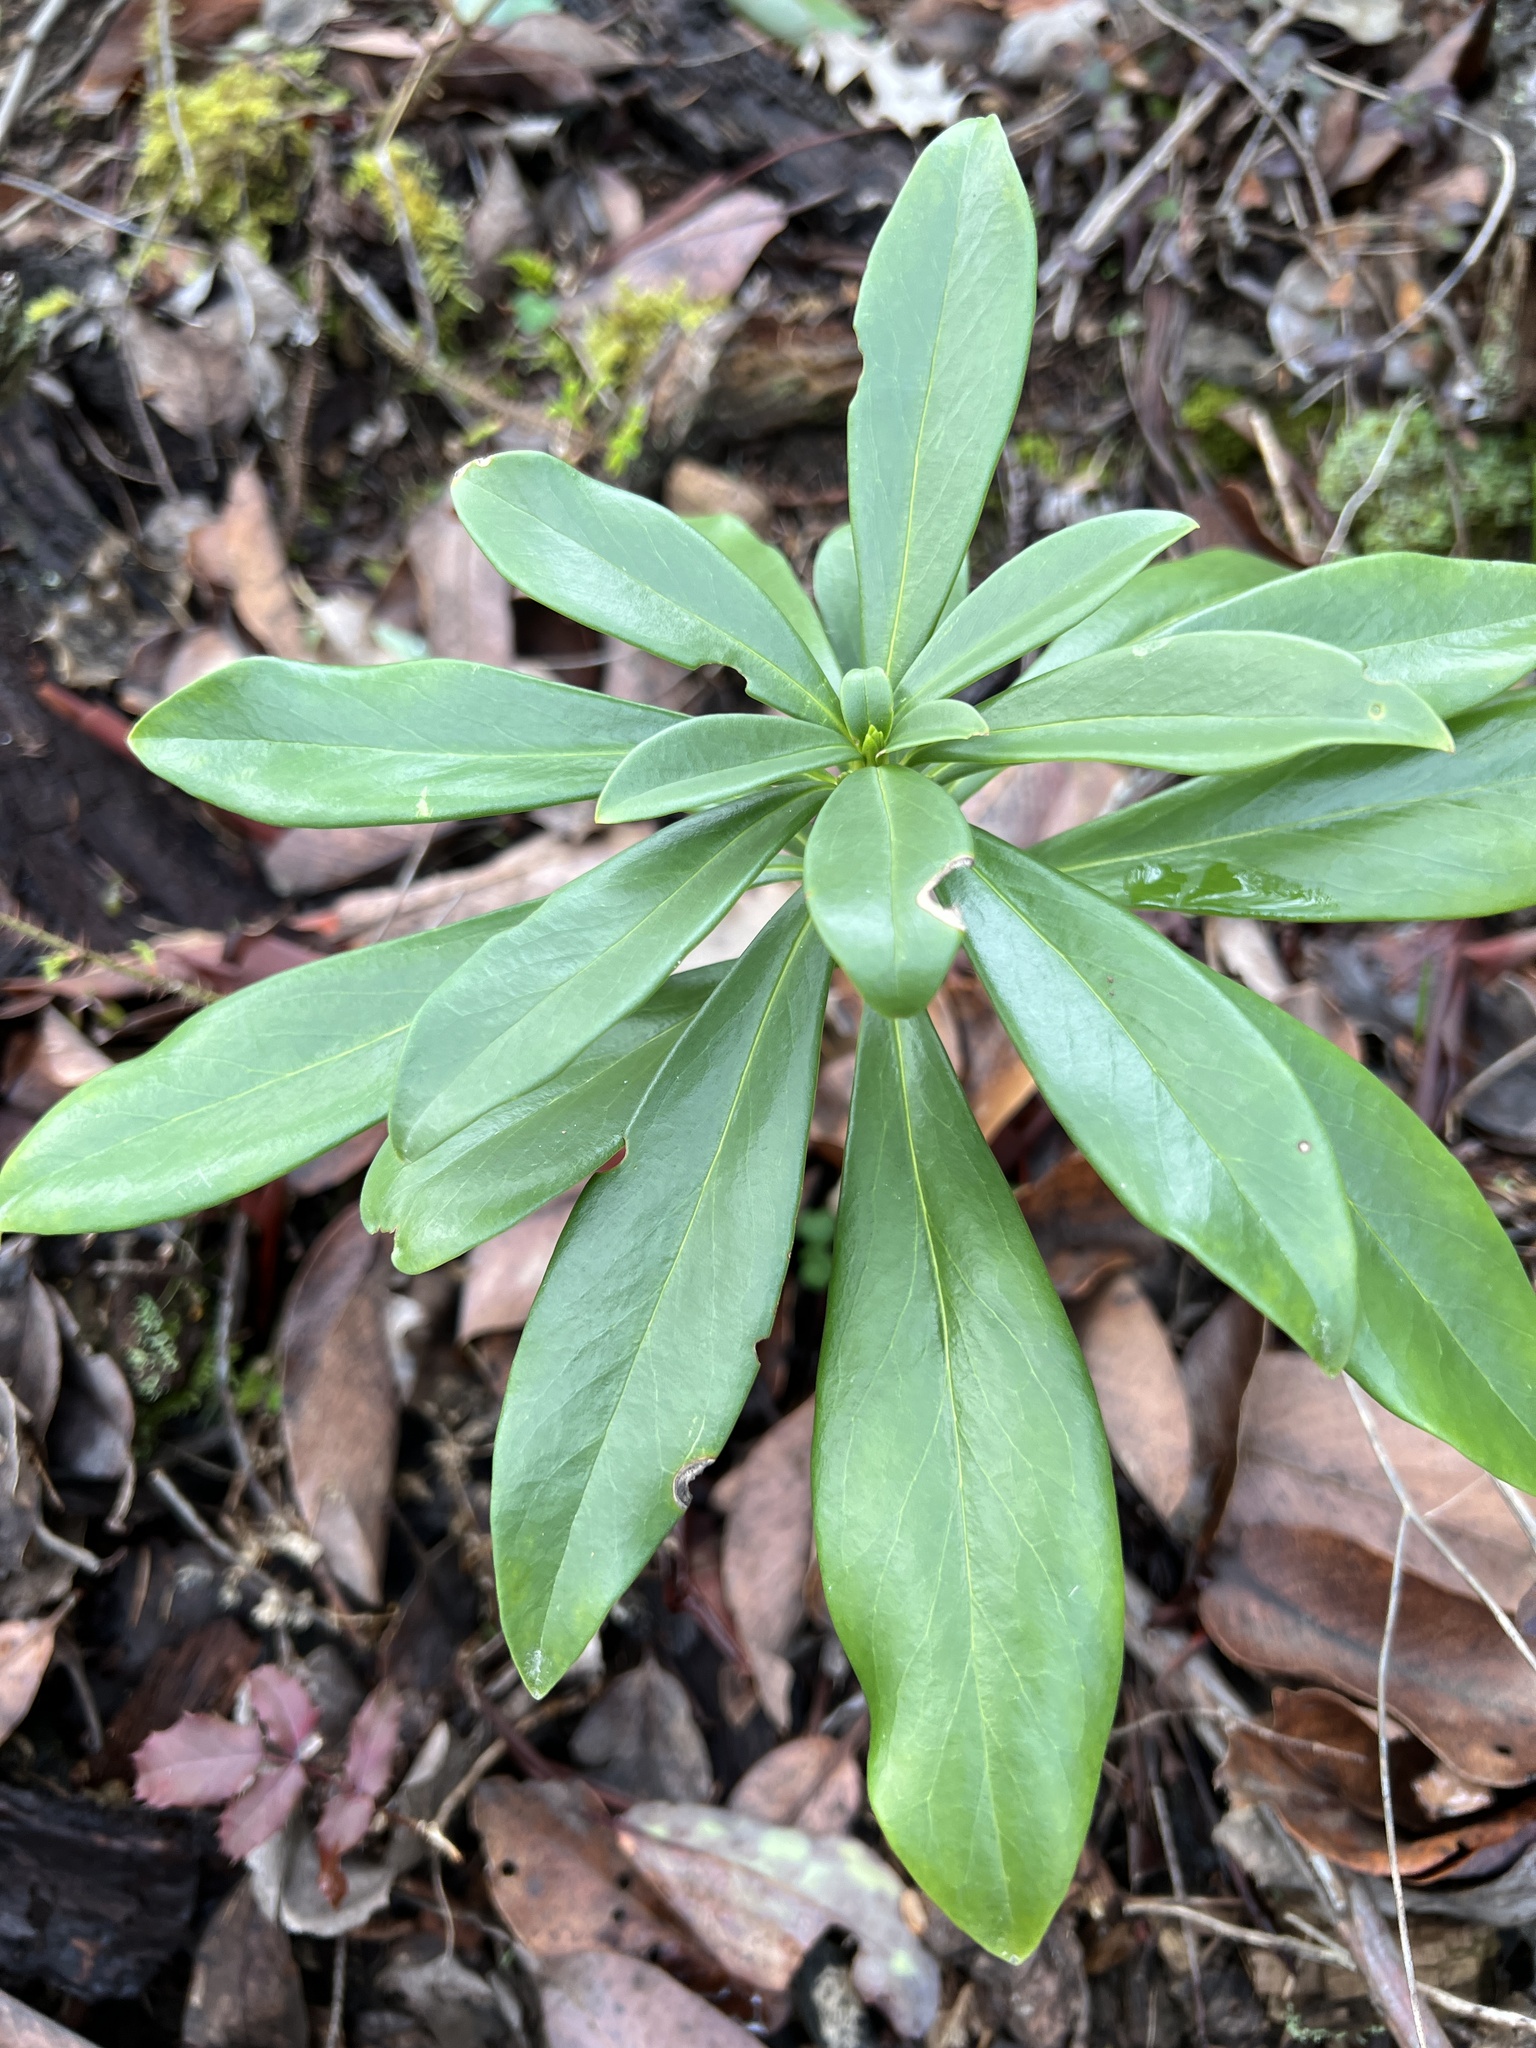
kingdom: Plantae
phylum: Tracheophyta
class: Magnoliopsida
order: Malvales
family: Thymelaeaceae
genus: Daphne
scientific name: Daphne laureola
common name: Spurge-laurel
